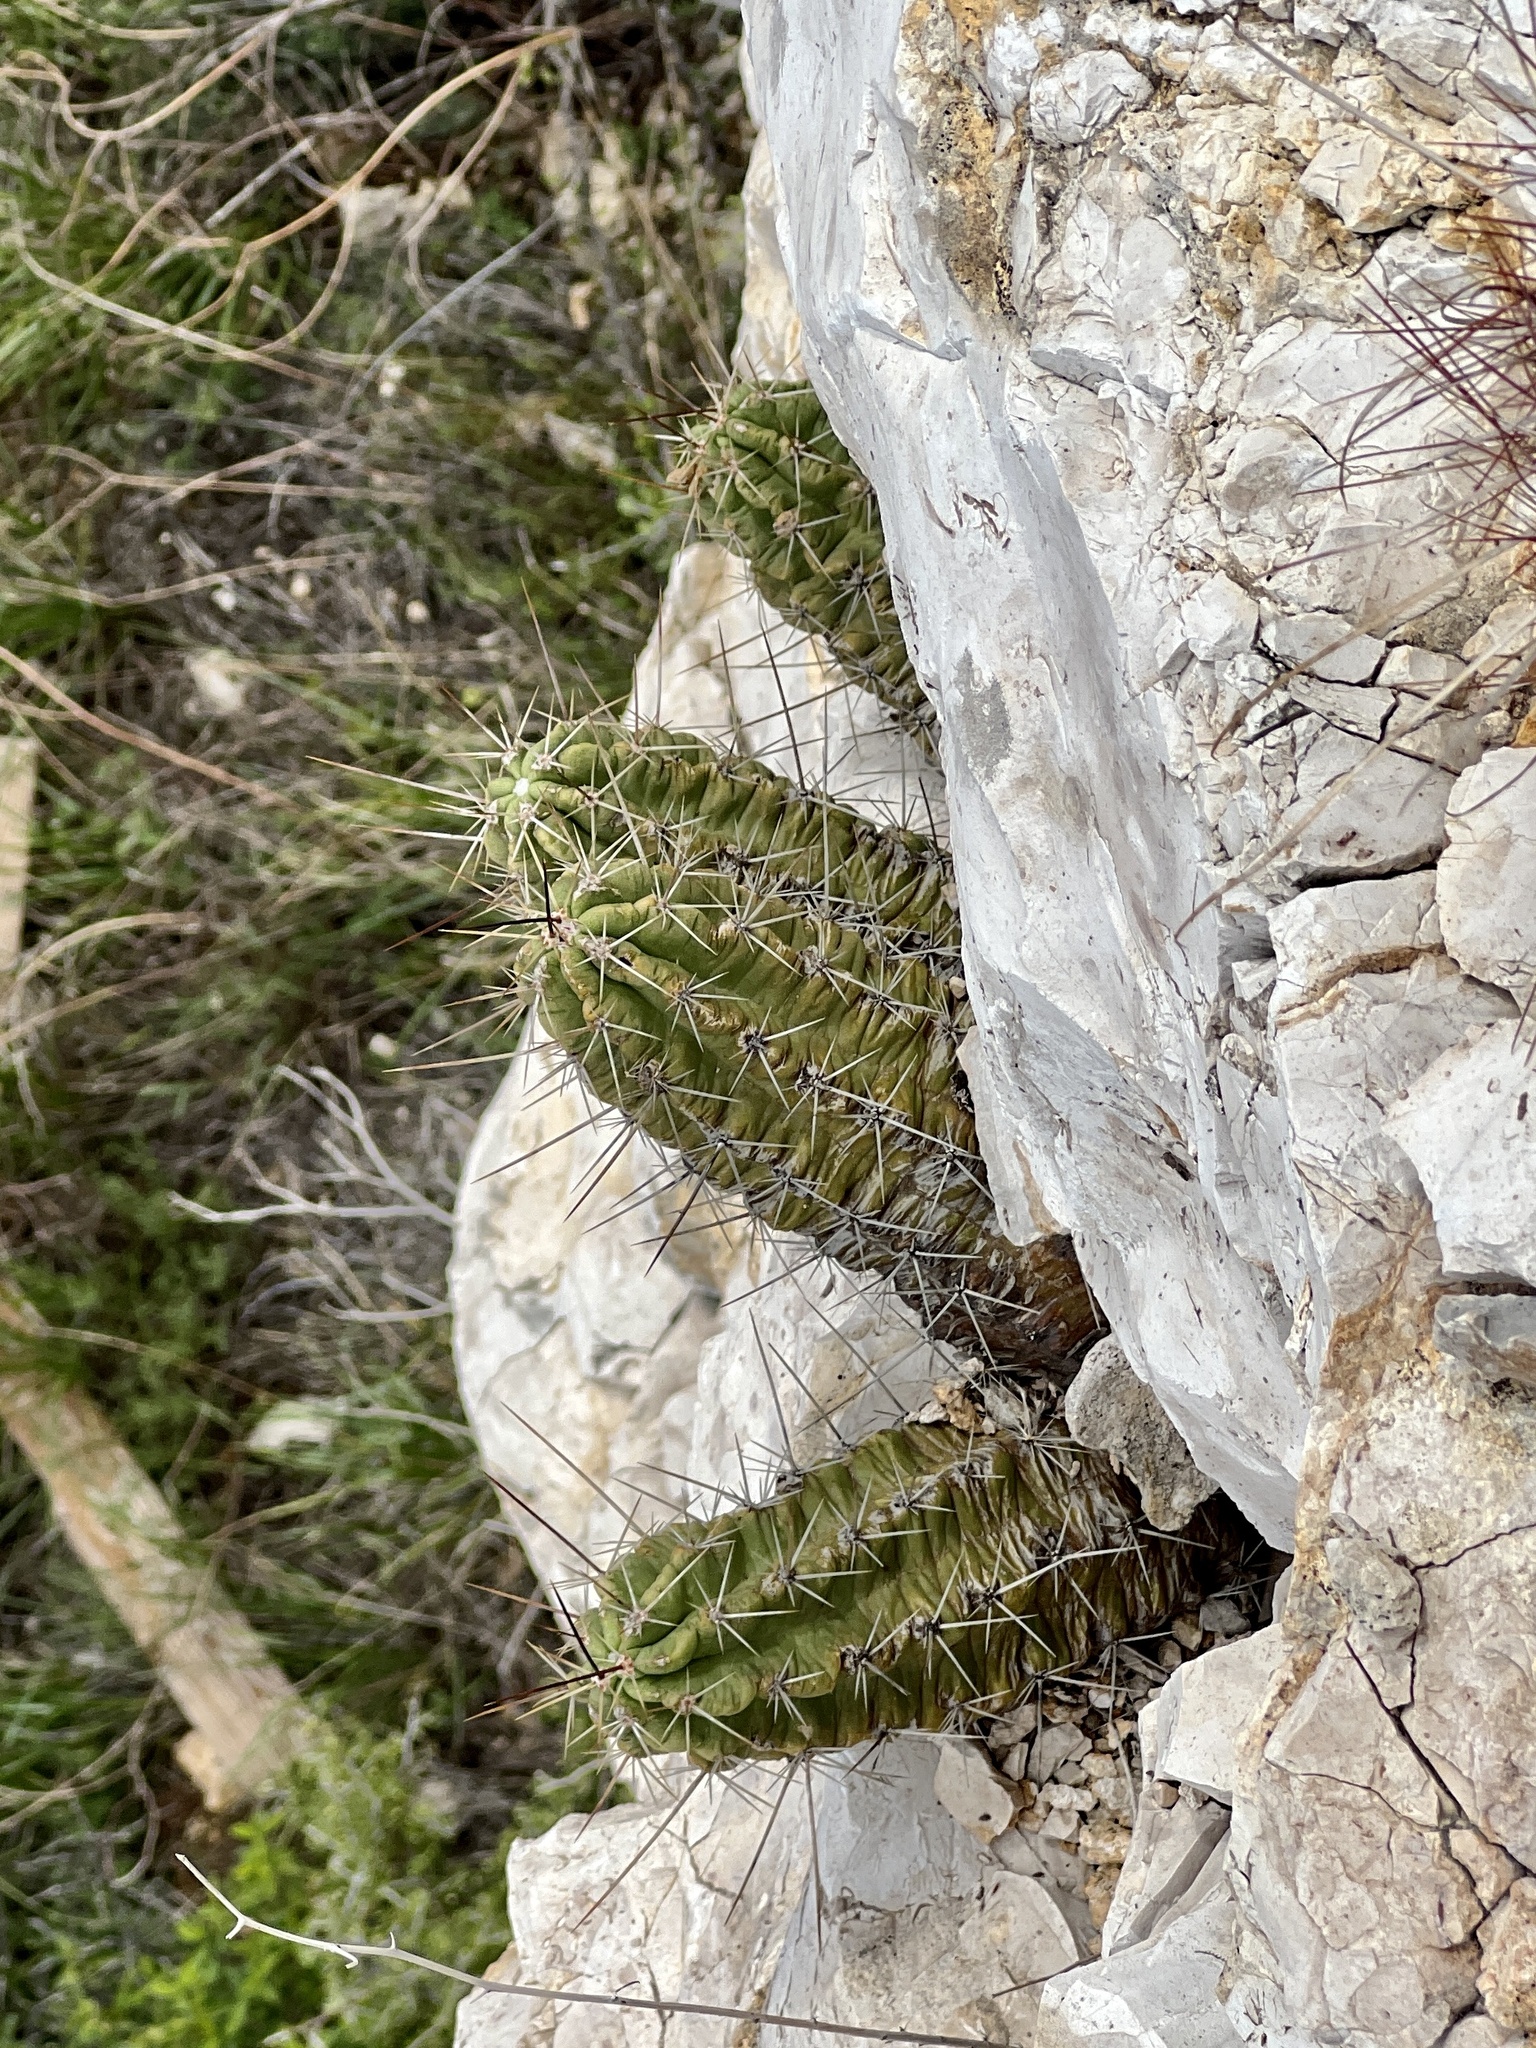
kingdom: Plantae
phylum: Tracheophyta
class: Magnoliopsida
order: Caryophyllales
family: Cactaceae
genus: Echinocereus
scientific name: Echinocereus enneacanthus
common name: Pitaya
